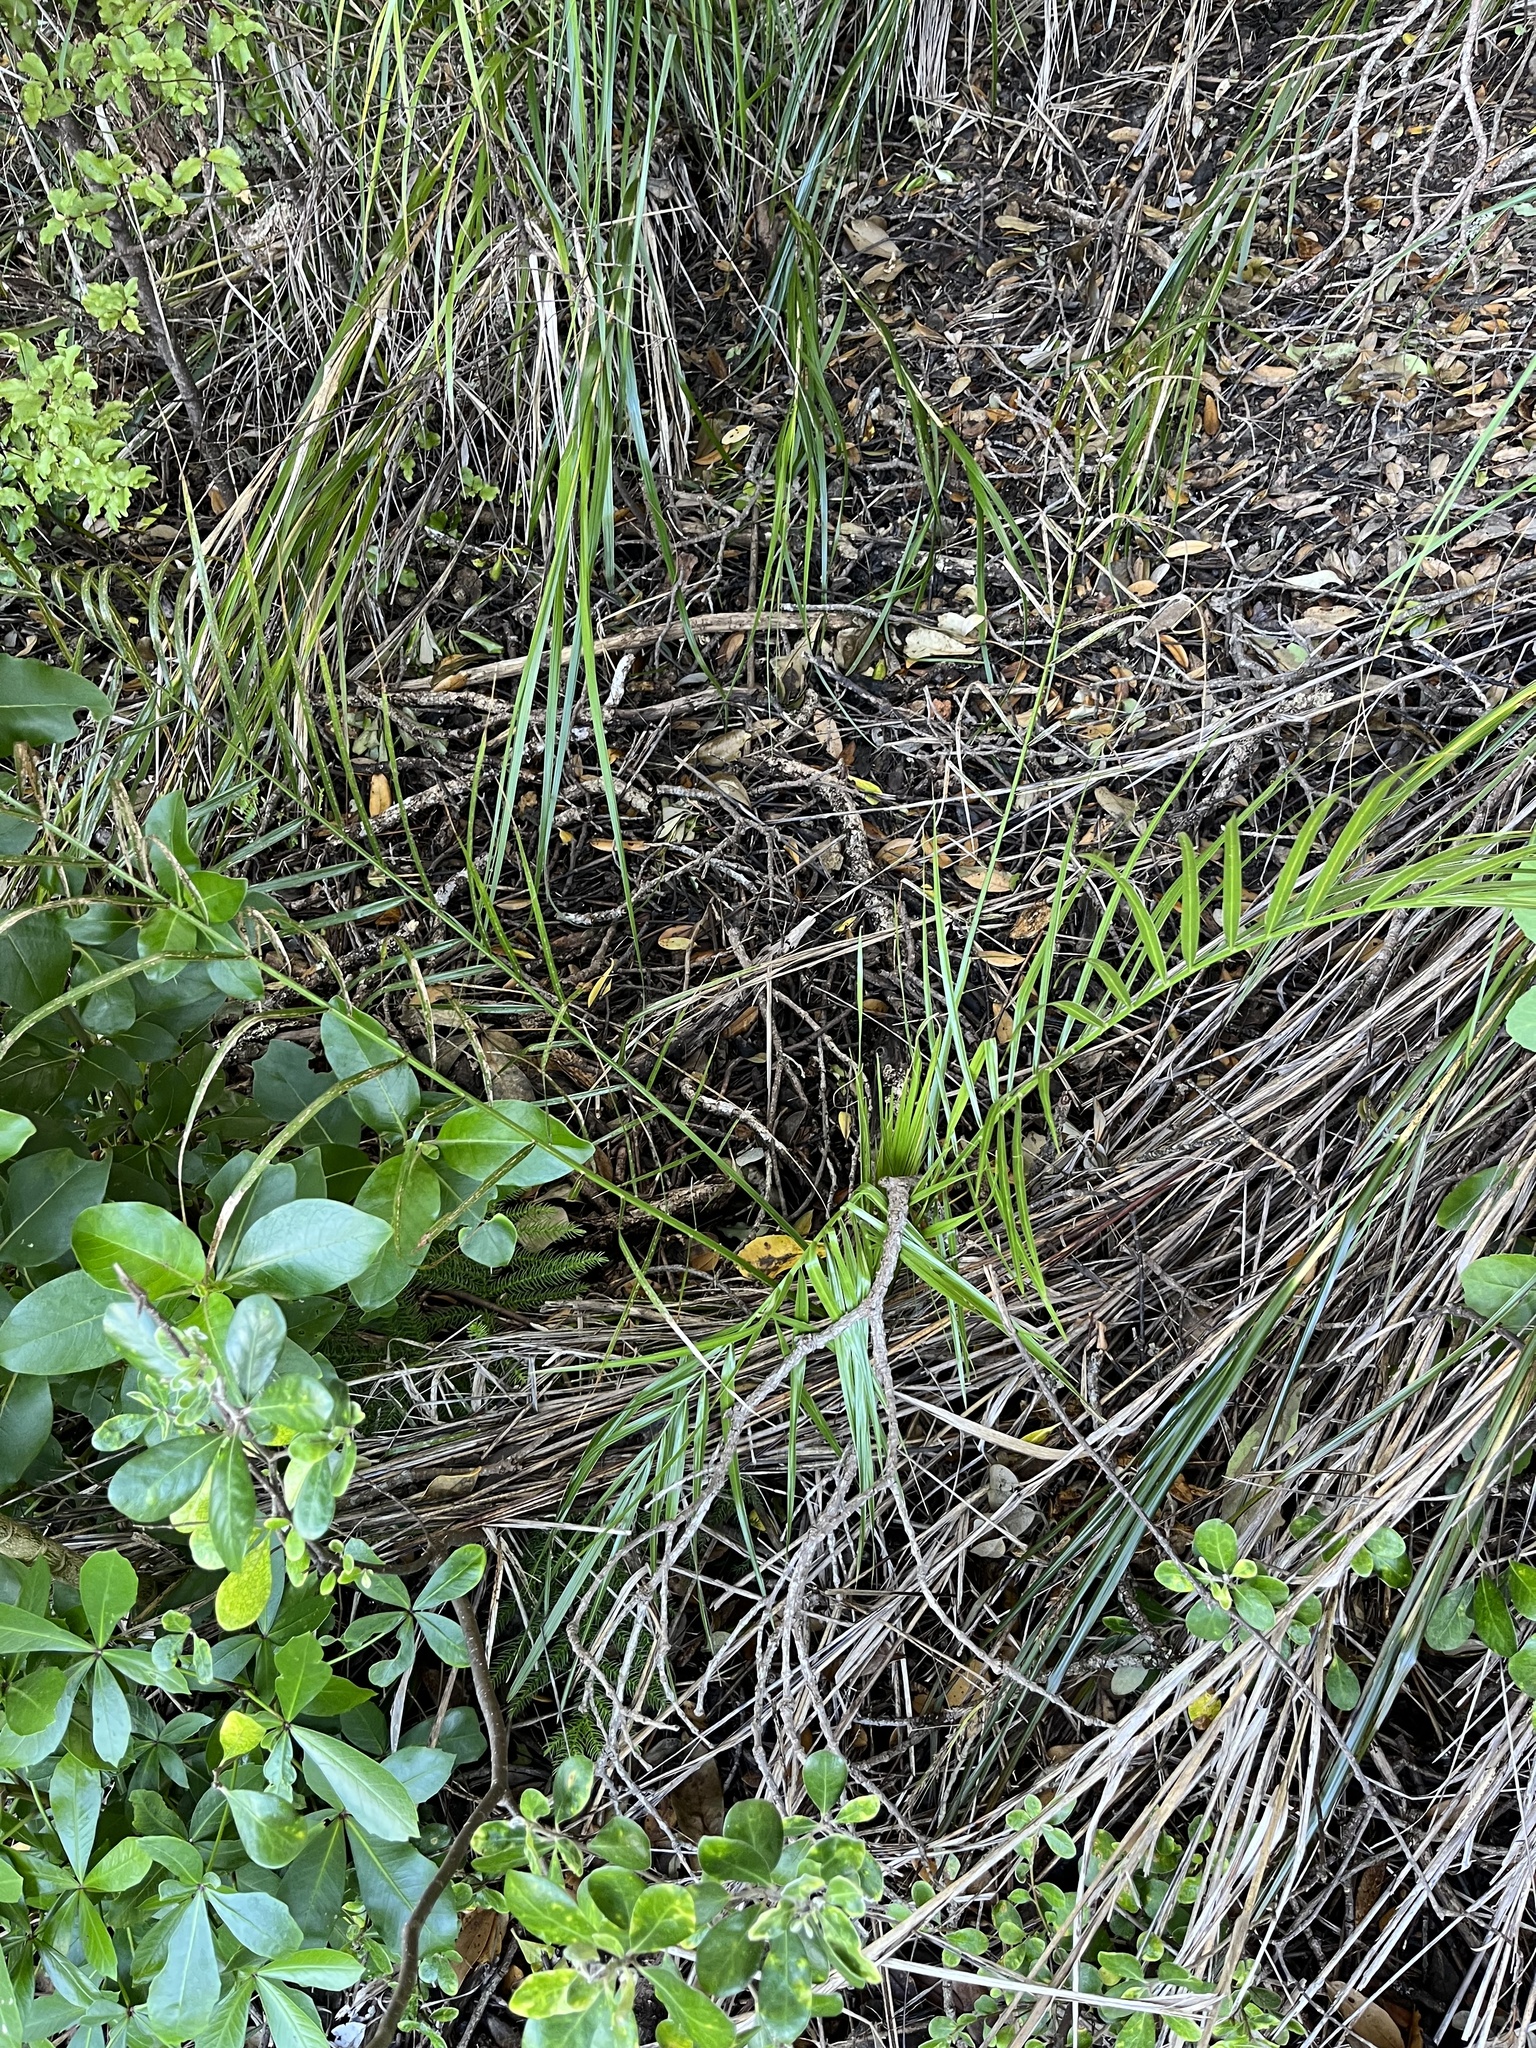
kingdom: Plantae
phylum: Tracheophyta
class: Liliopsida
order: Arecales
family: Arecaceae
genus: Phoenix
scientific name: Phoenix canariensis
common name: Canary island date palm
